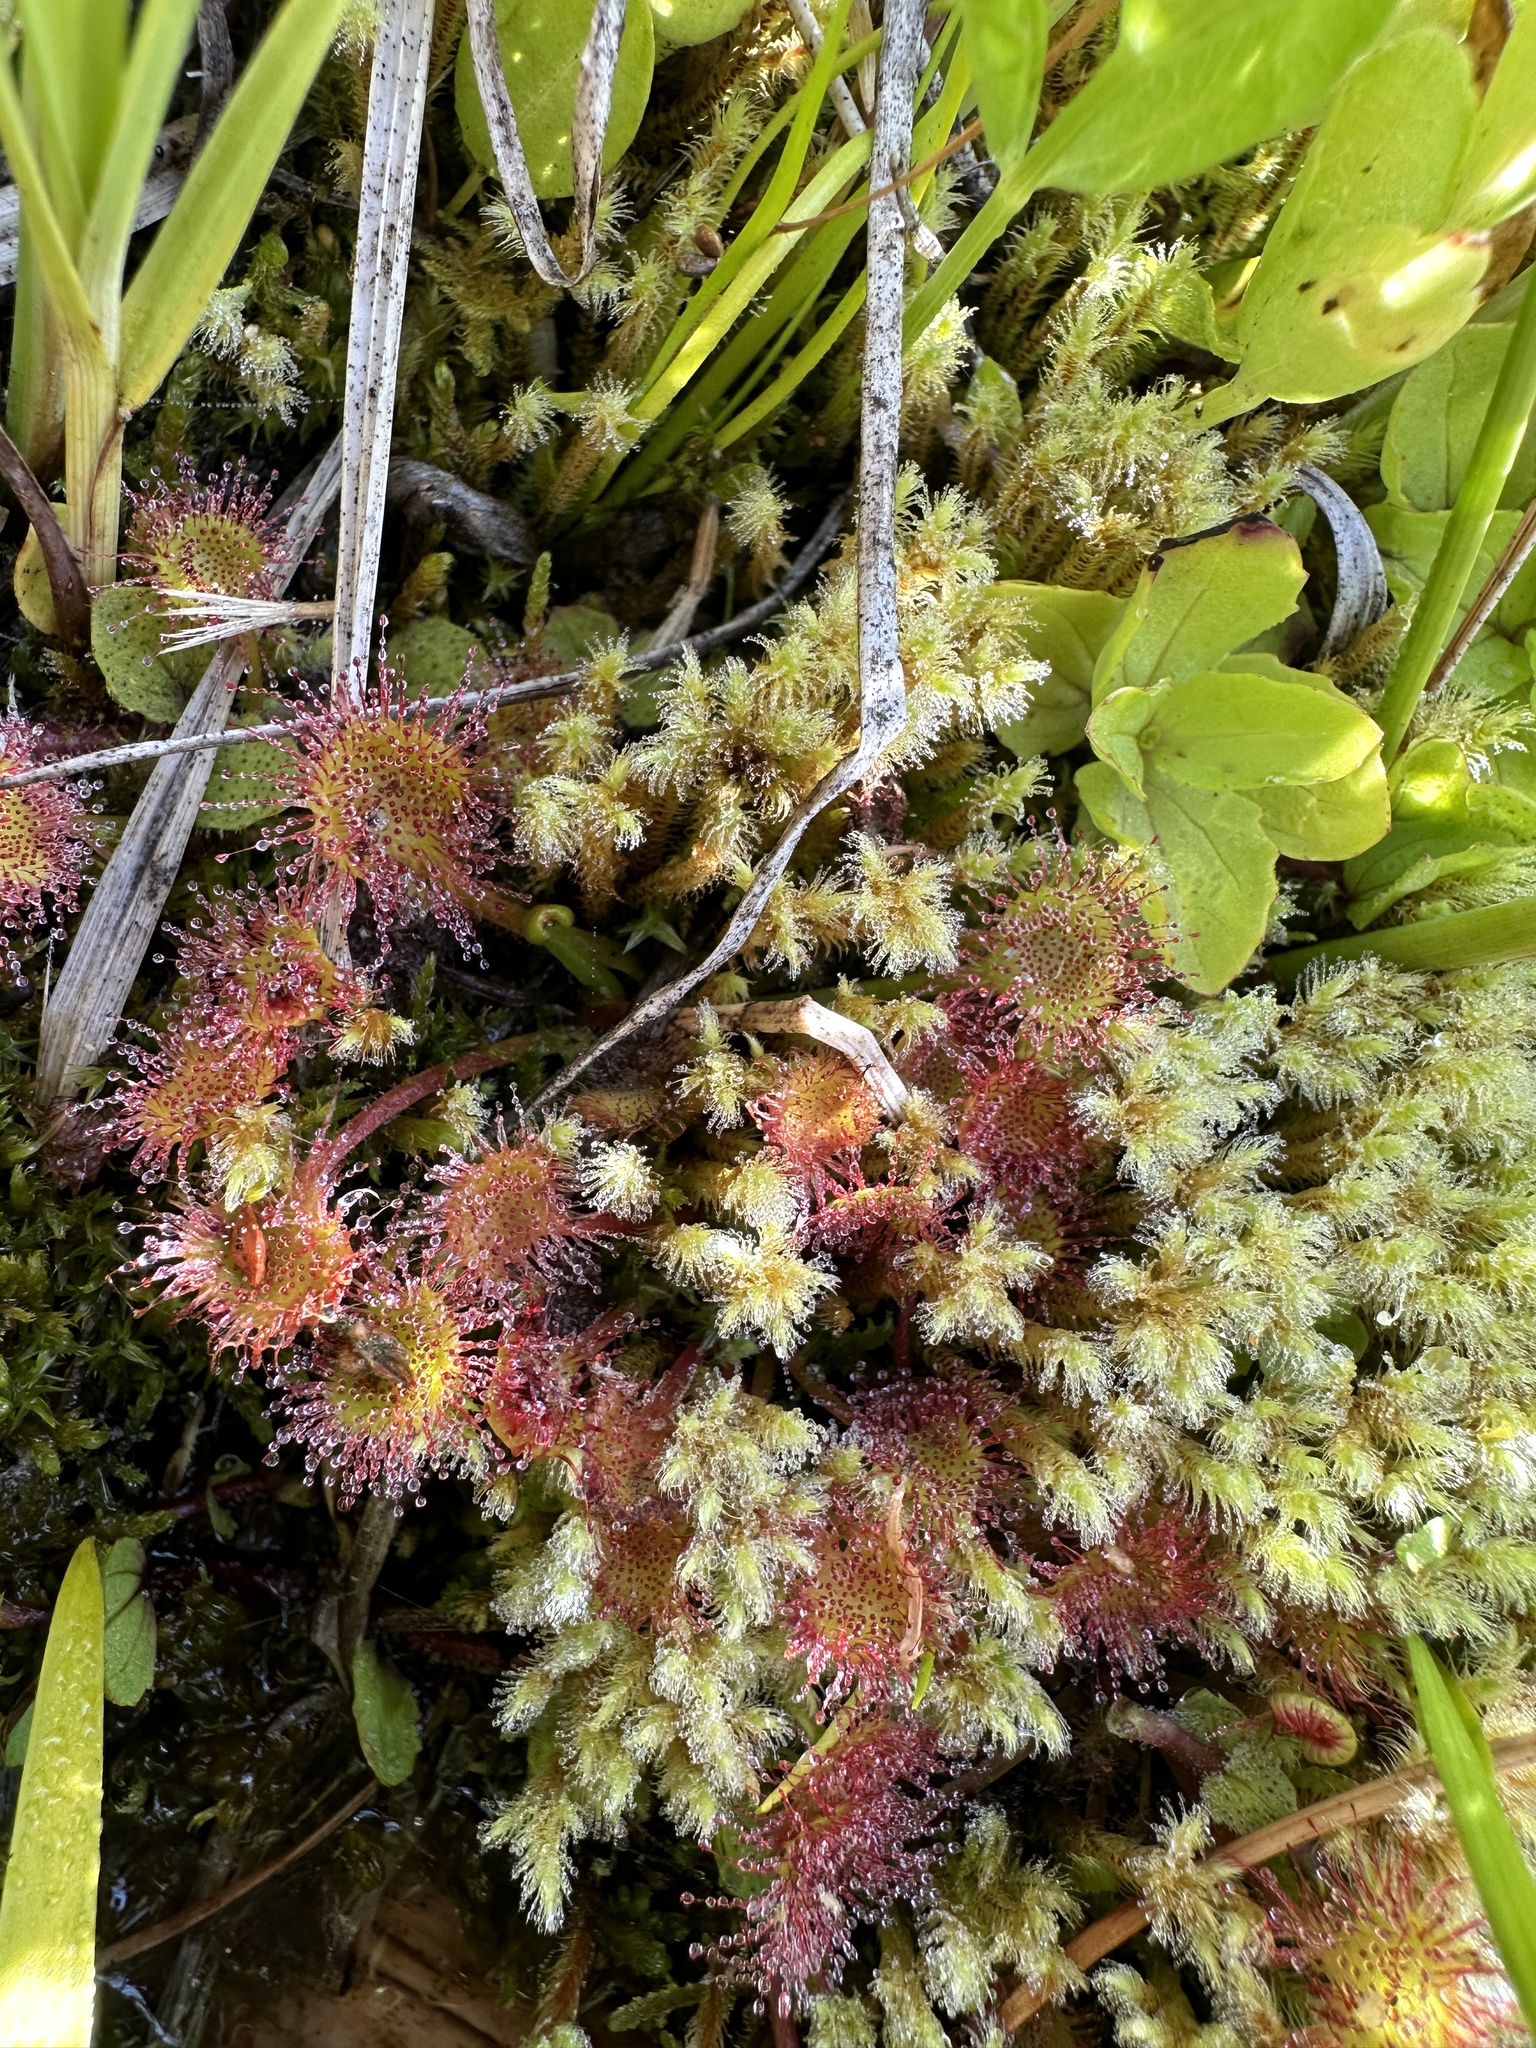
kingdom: Plantae
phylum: Tracheophyta
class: Magnoliopsida
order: Caryophyllales
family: Droseraceae
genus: Drosera
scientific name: Drosera rotundifolia
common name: Round-leaved sundew
